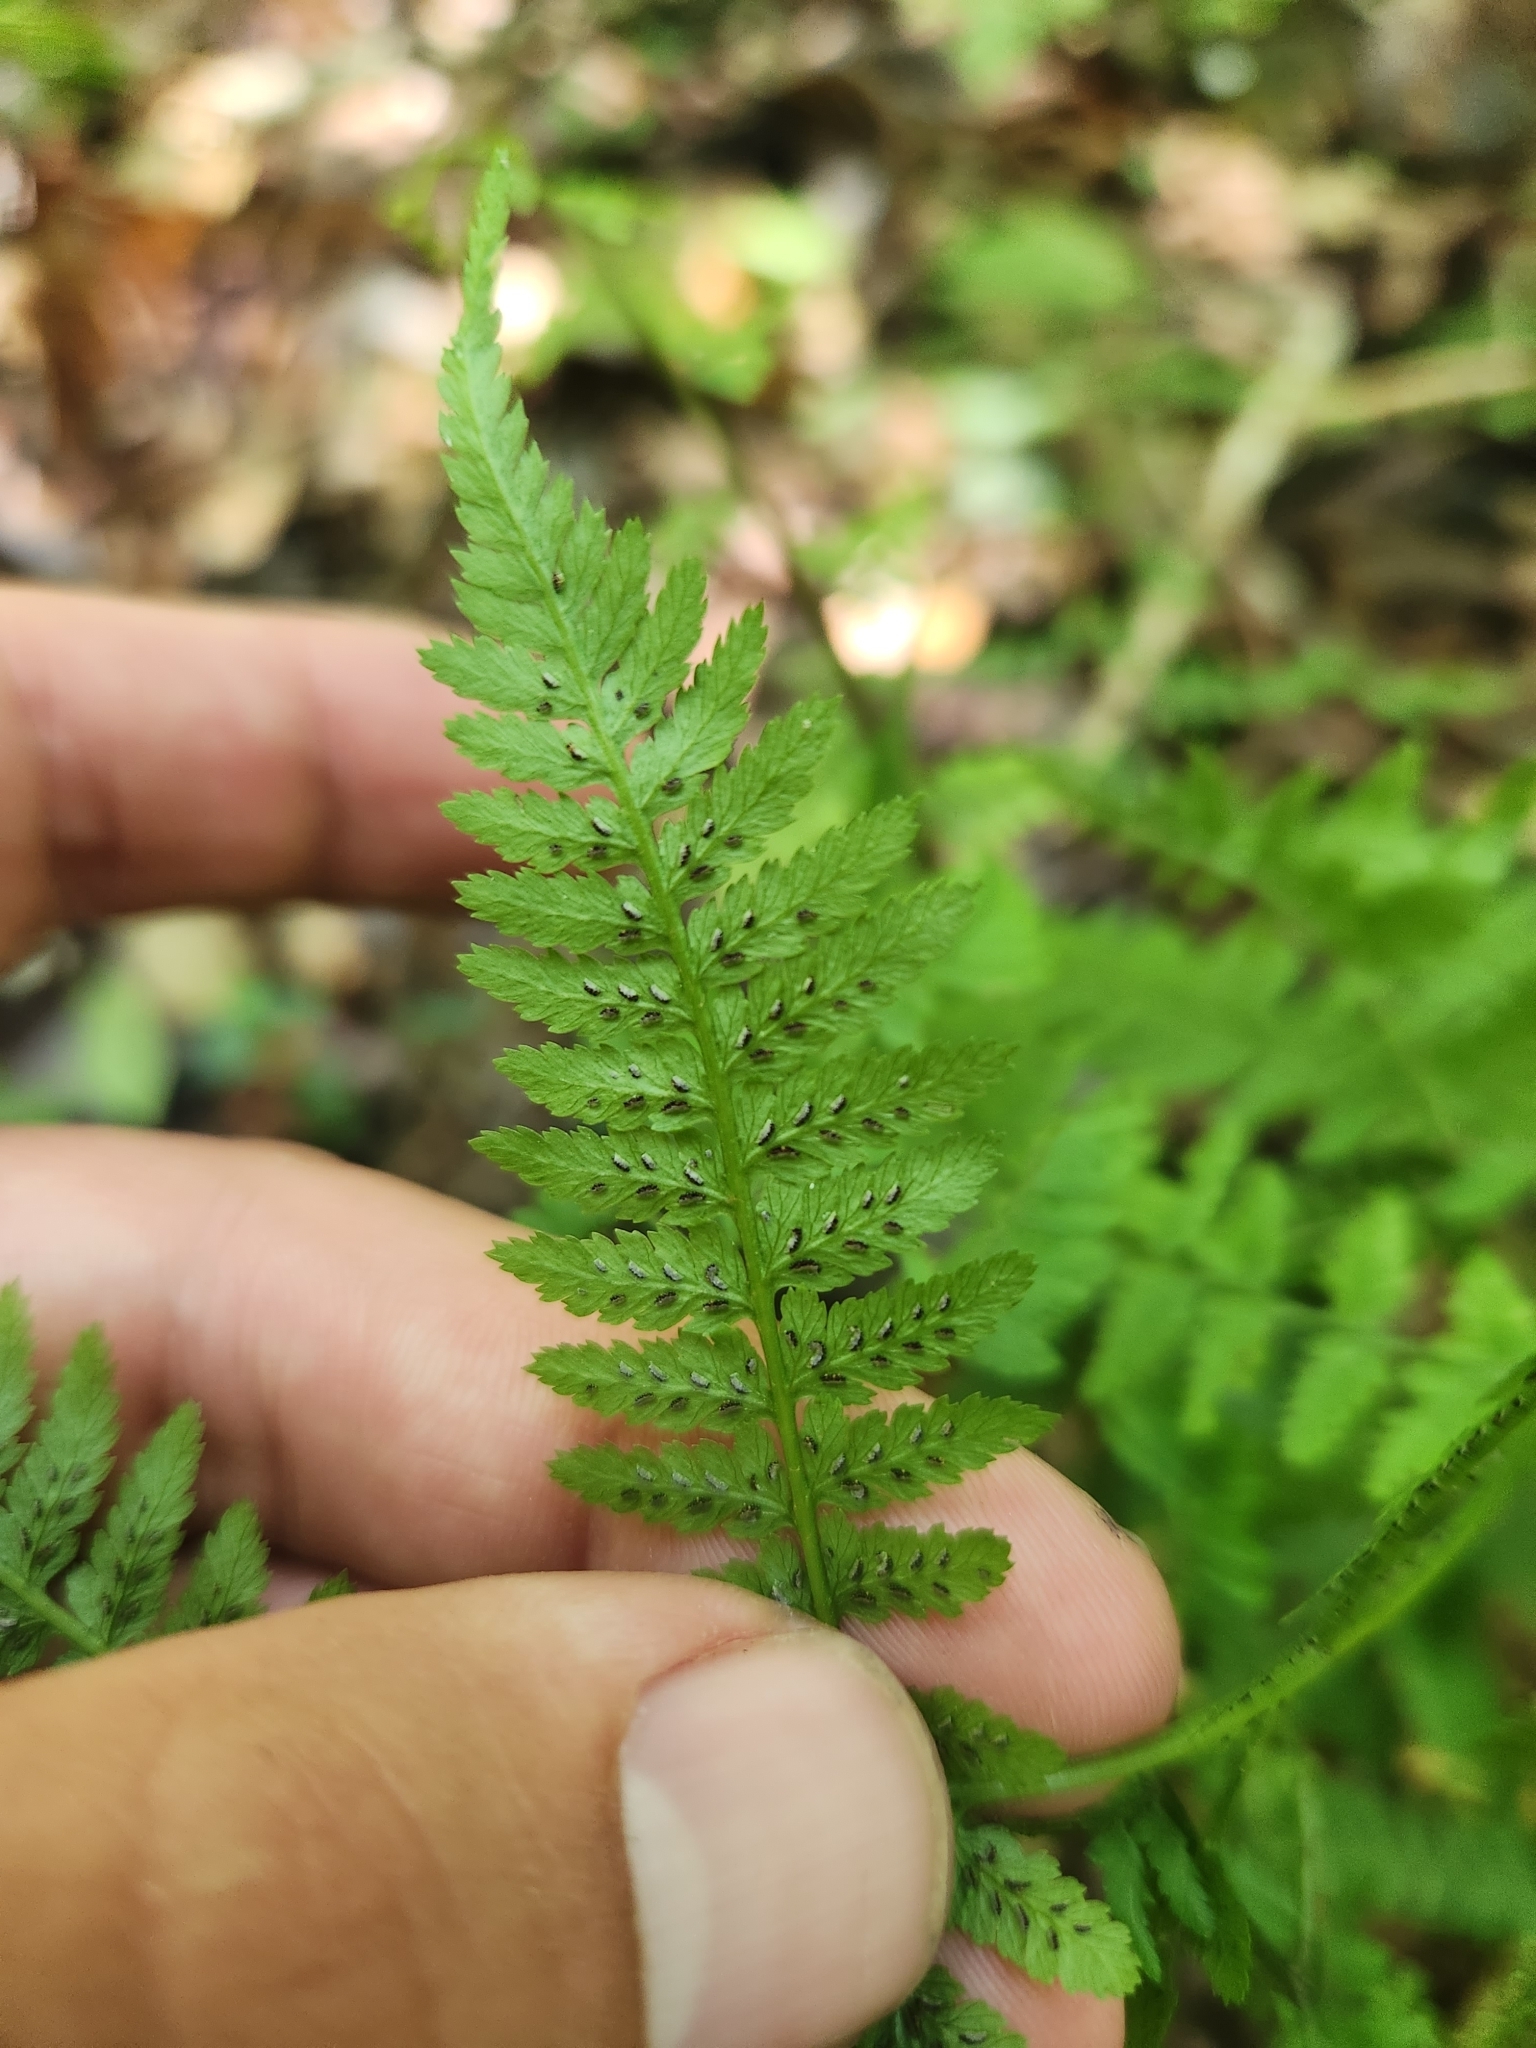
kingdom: Plantae
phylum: Tracheophyta
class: Polypodiopsida
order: Polypodiales
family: Athyriaceae
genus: Athyrium
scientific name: Athyrium asplenioides
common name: Southern lady fern
